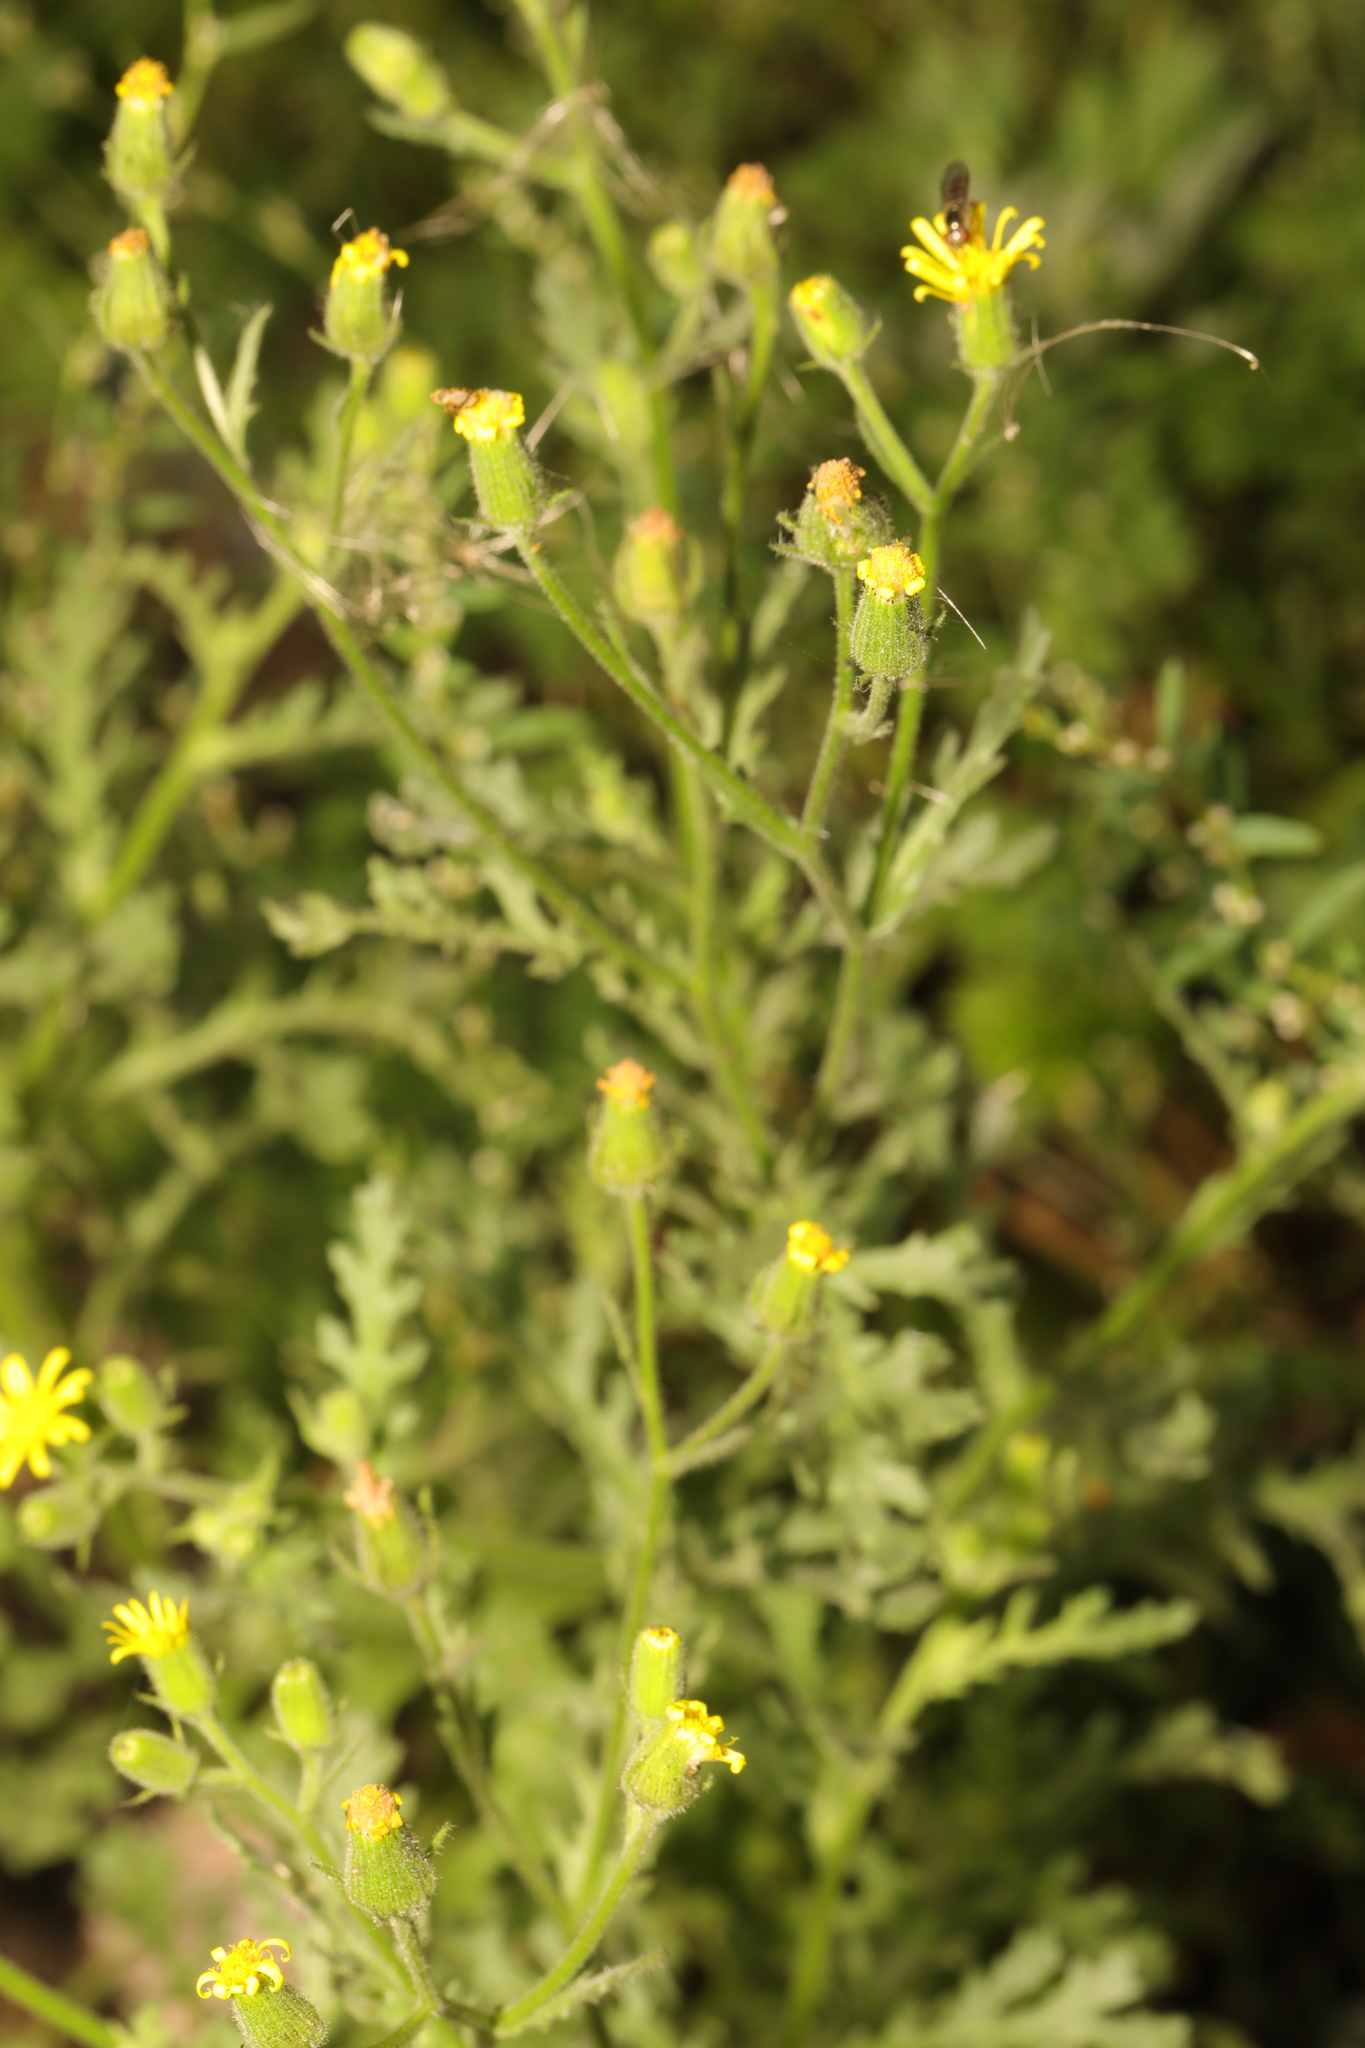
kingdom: Plantae
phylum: Tracheophyta
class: Magnoliopsida
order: Asterales
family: Asteraceae
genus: Senecio
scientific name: Senecio viscosus
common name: Sticky groundsel
